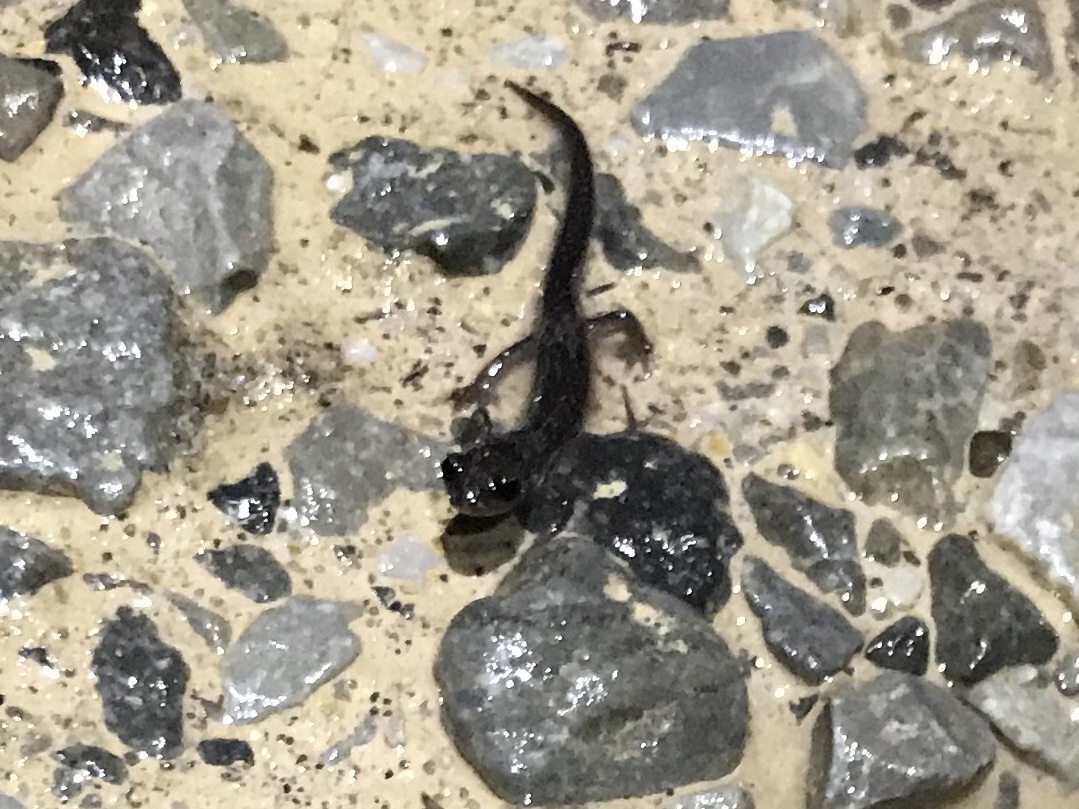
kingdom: Animalia
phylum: Chordata
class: Amphibia
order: Caudata
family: Plethodontidae
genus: Plethodon
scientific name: Plethodon glutinosus
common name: Northern slimy salamander
